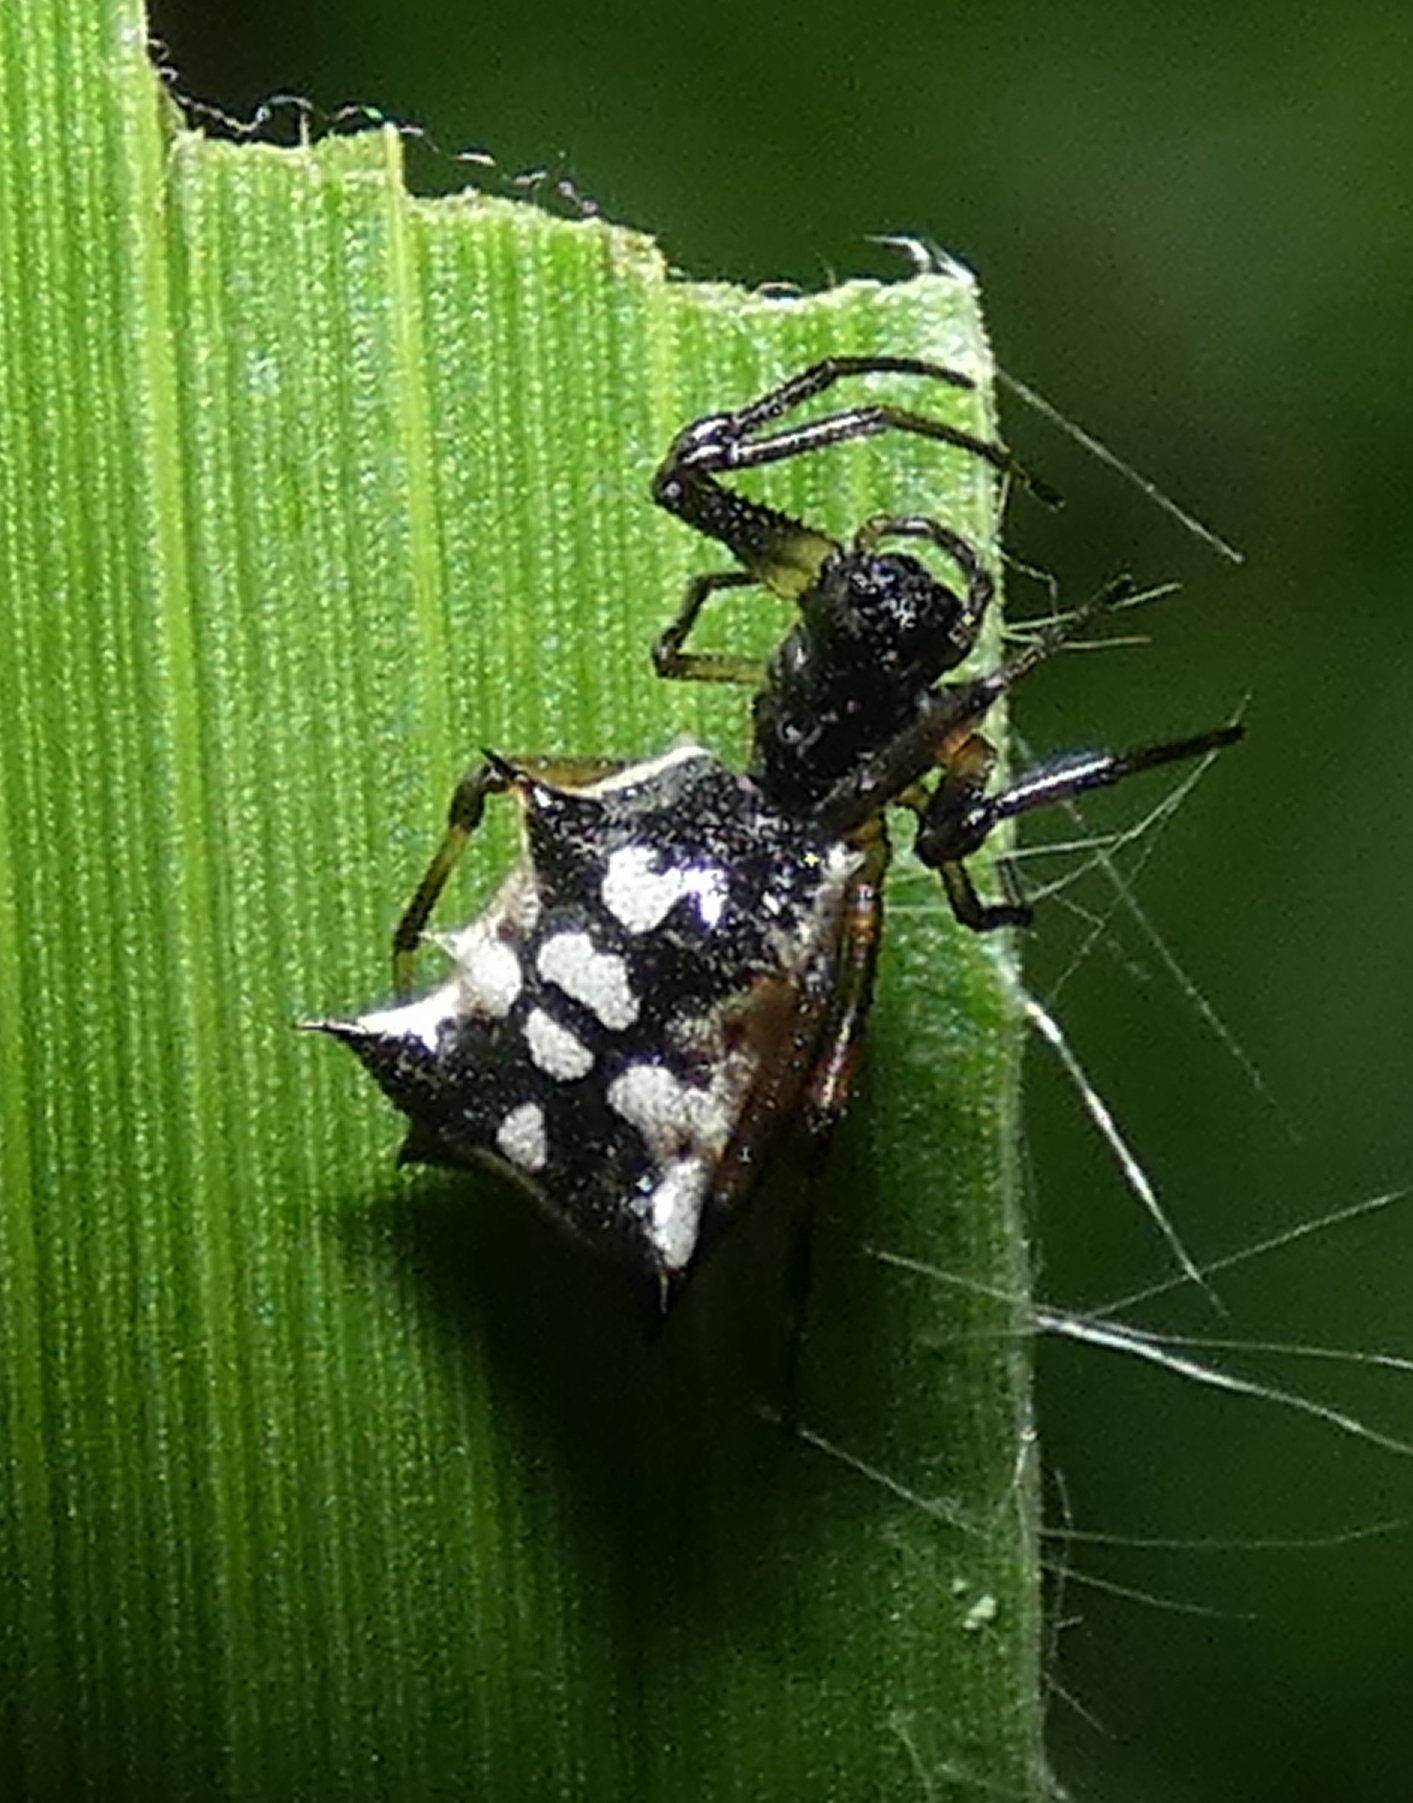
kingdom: Animalia
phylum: Arthropoda
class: Arachnida
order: Araneae
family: Araneidae
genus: Micrathena
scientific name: Micrathena picta
